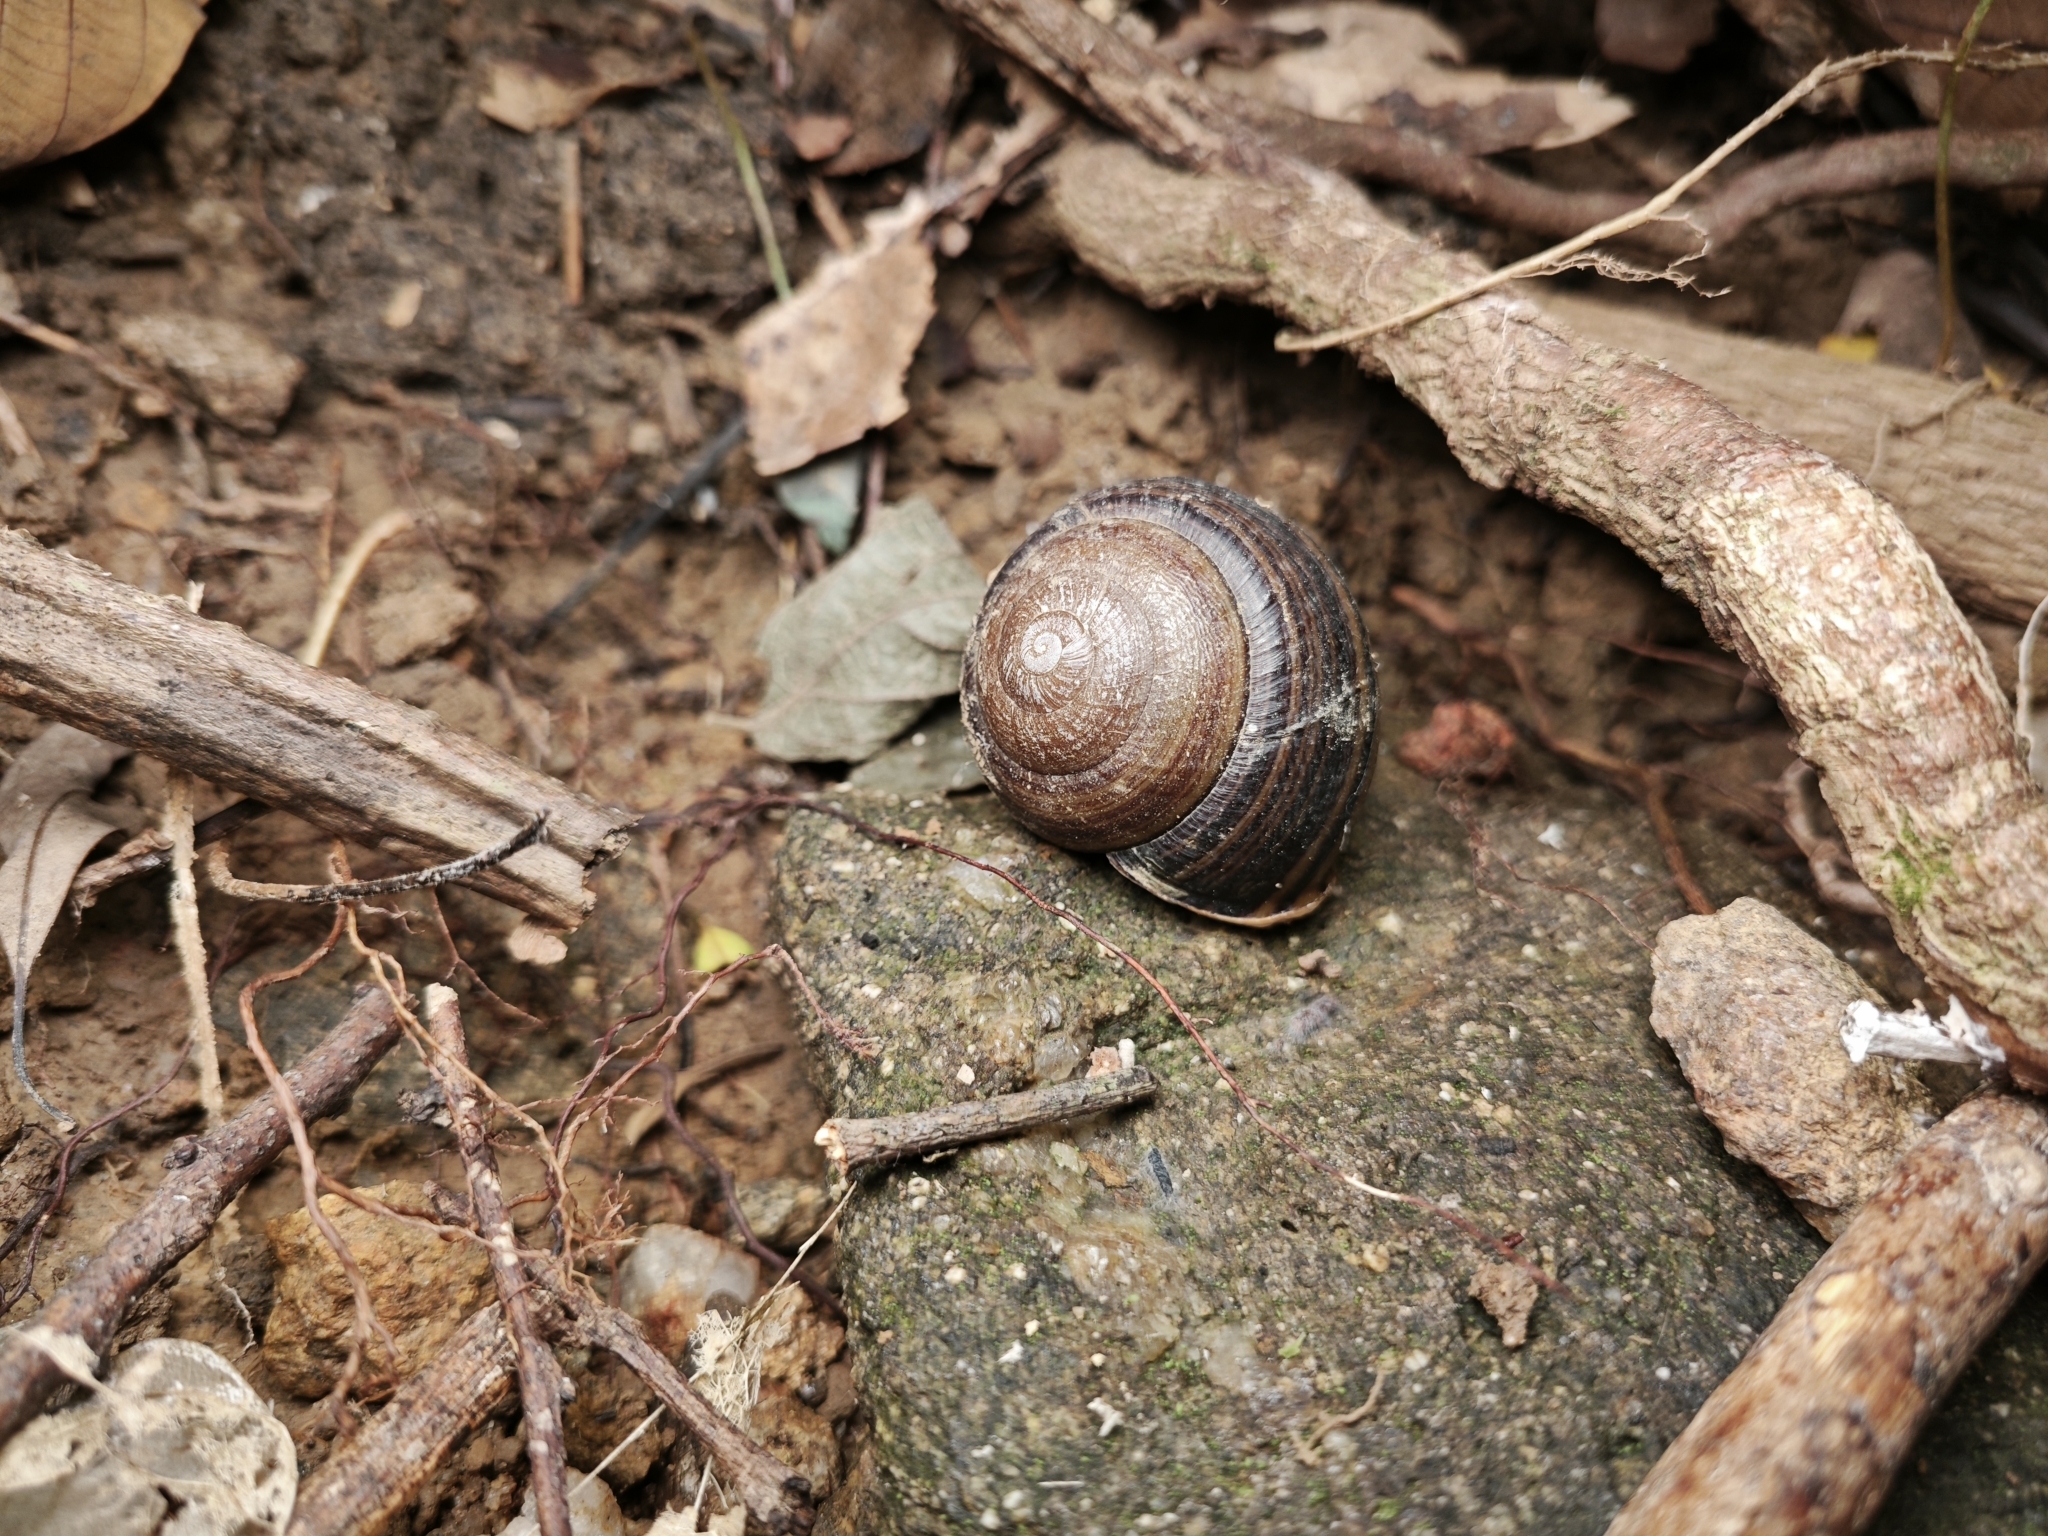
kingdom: Animalia
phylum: Mollusca
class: Gastropoda
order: Stylommatophora
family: Camaenidae
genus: Camaena
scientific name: Camaena hainanensis
